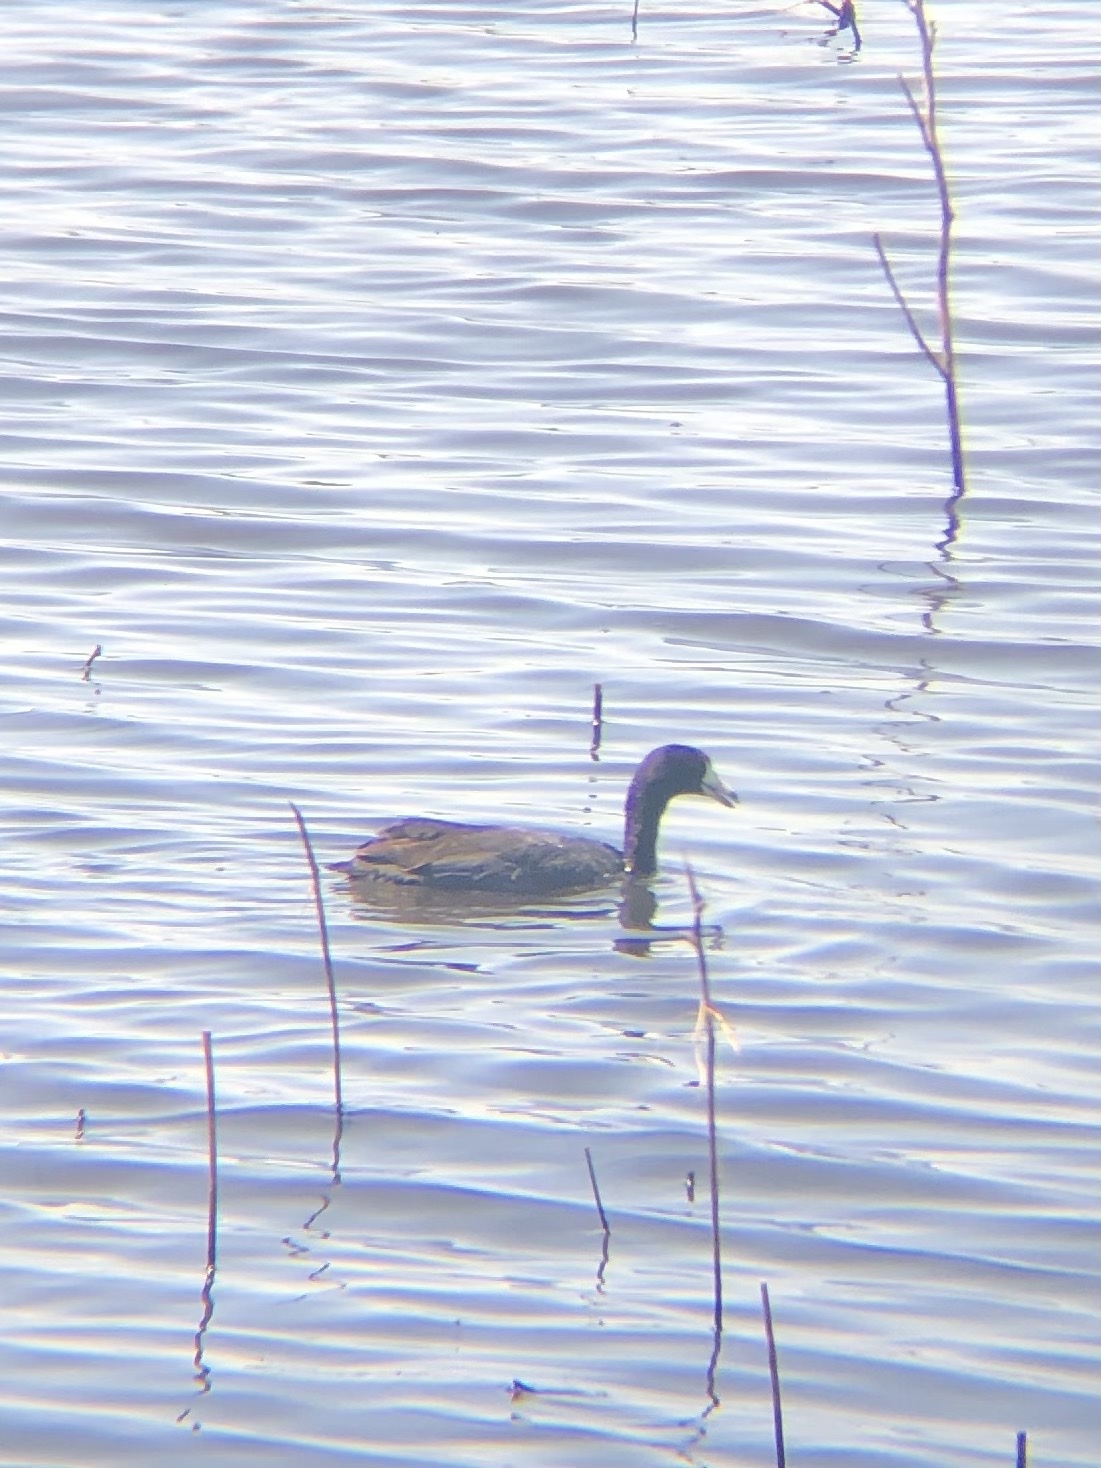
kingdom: Animalia
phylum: Chordata
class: Aves
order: Gruiformes
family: Rallidae
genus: Fulica
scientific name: Fulica americana
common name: American coot
